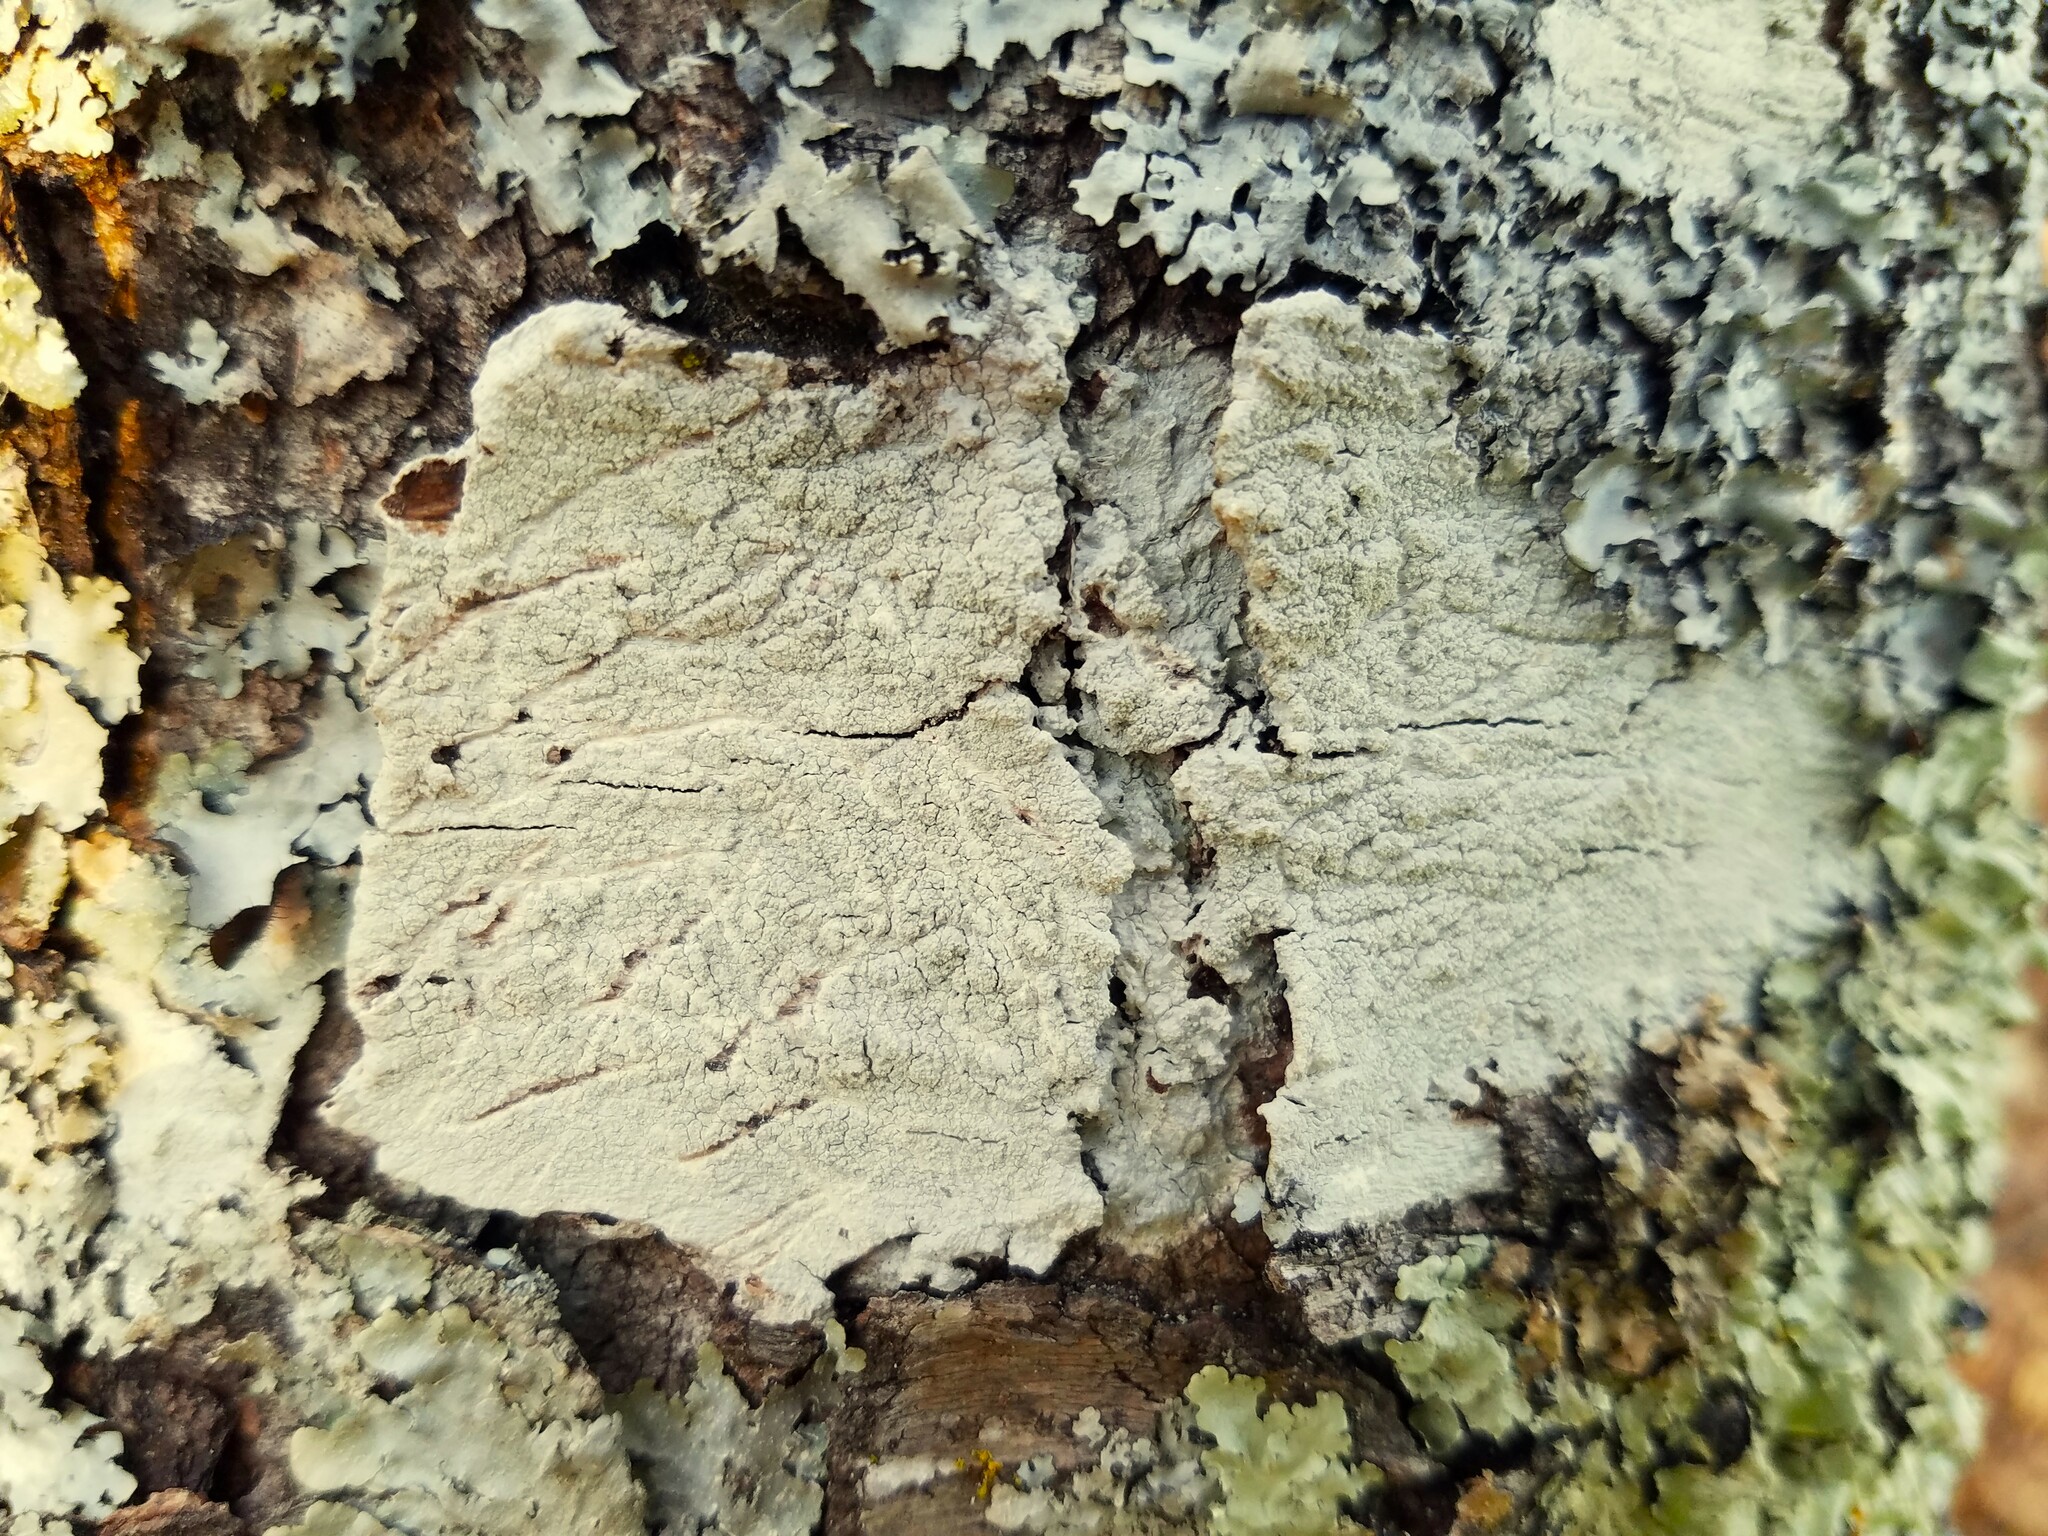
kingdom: Fungi
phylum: Ascomycota
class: Lecanoromycetes
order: Pertusariales
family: Pertusariaceae
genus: Lepra
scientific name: Lepra pustulata
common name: Pustule crust lichen
